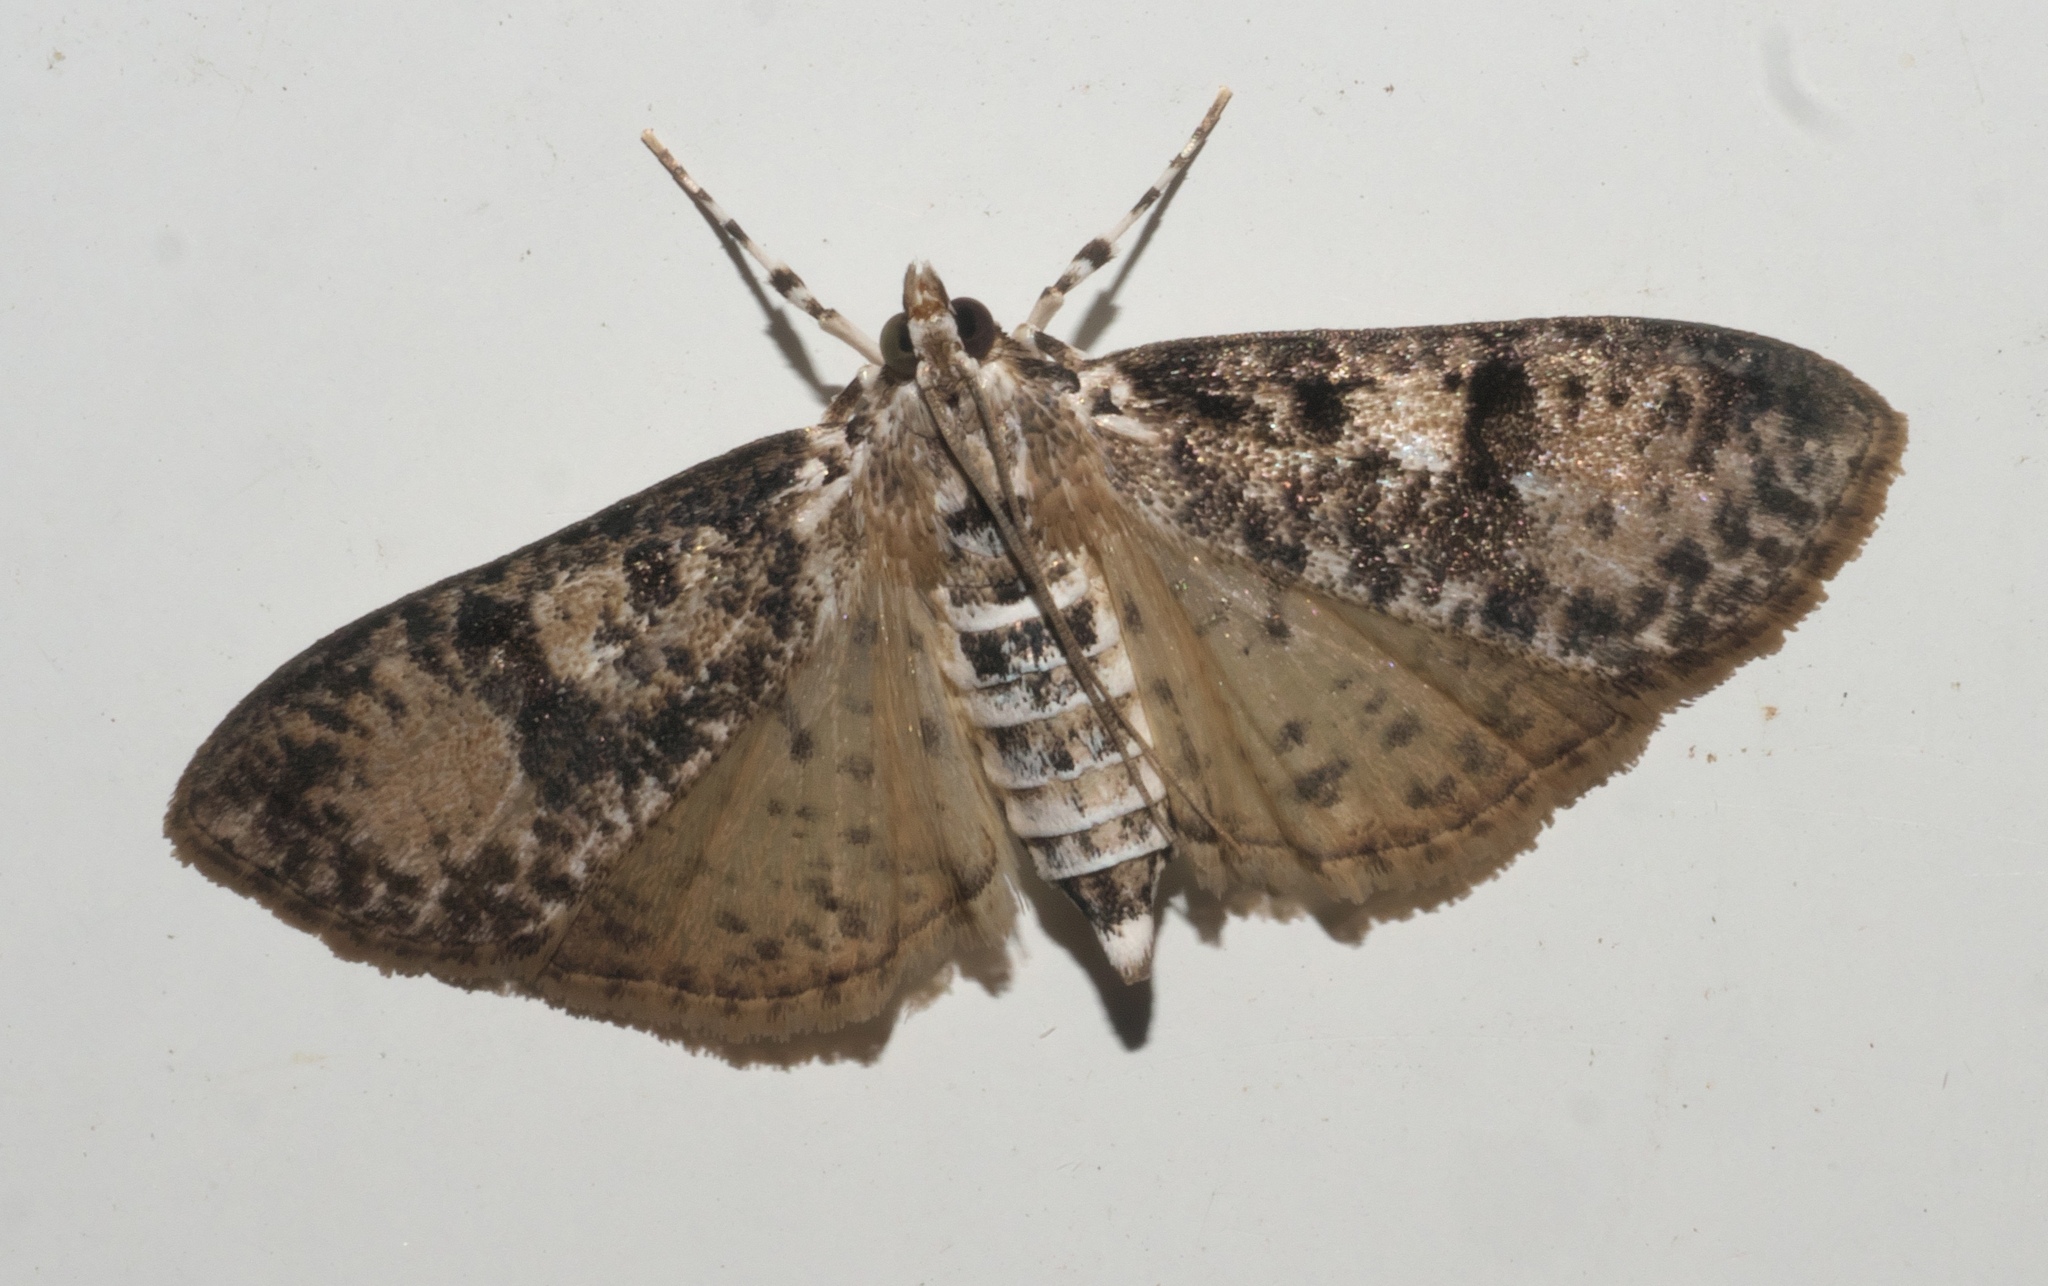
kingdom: Animalia
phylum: Arthropoda
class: Insecta
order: Lepidoptera
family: Crambidae
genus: Palpita
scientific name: Palpita magniferalis
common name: Splendid palpita moth
